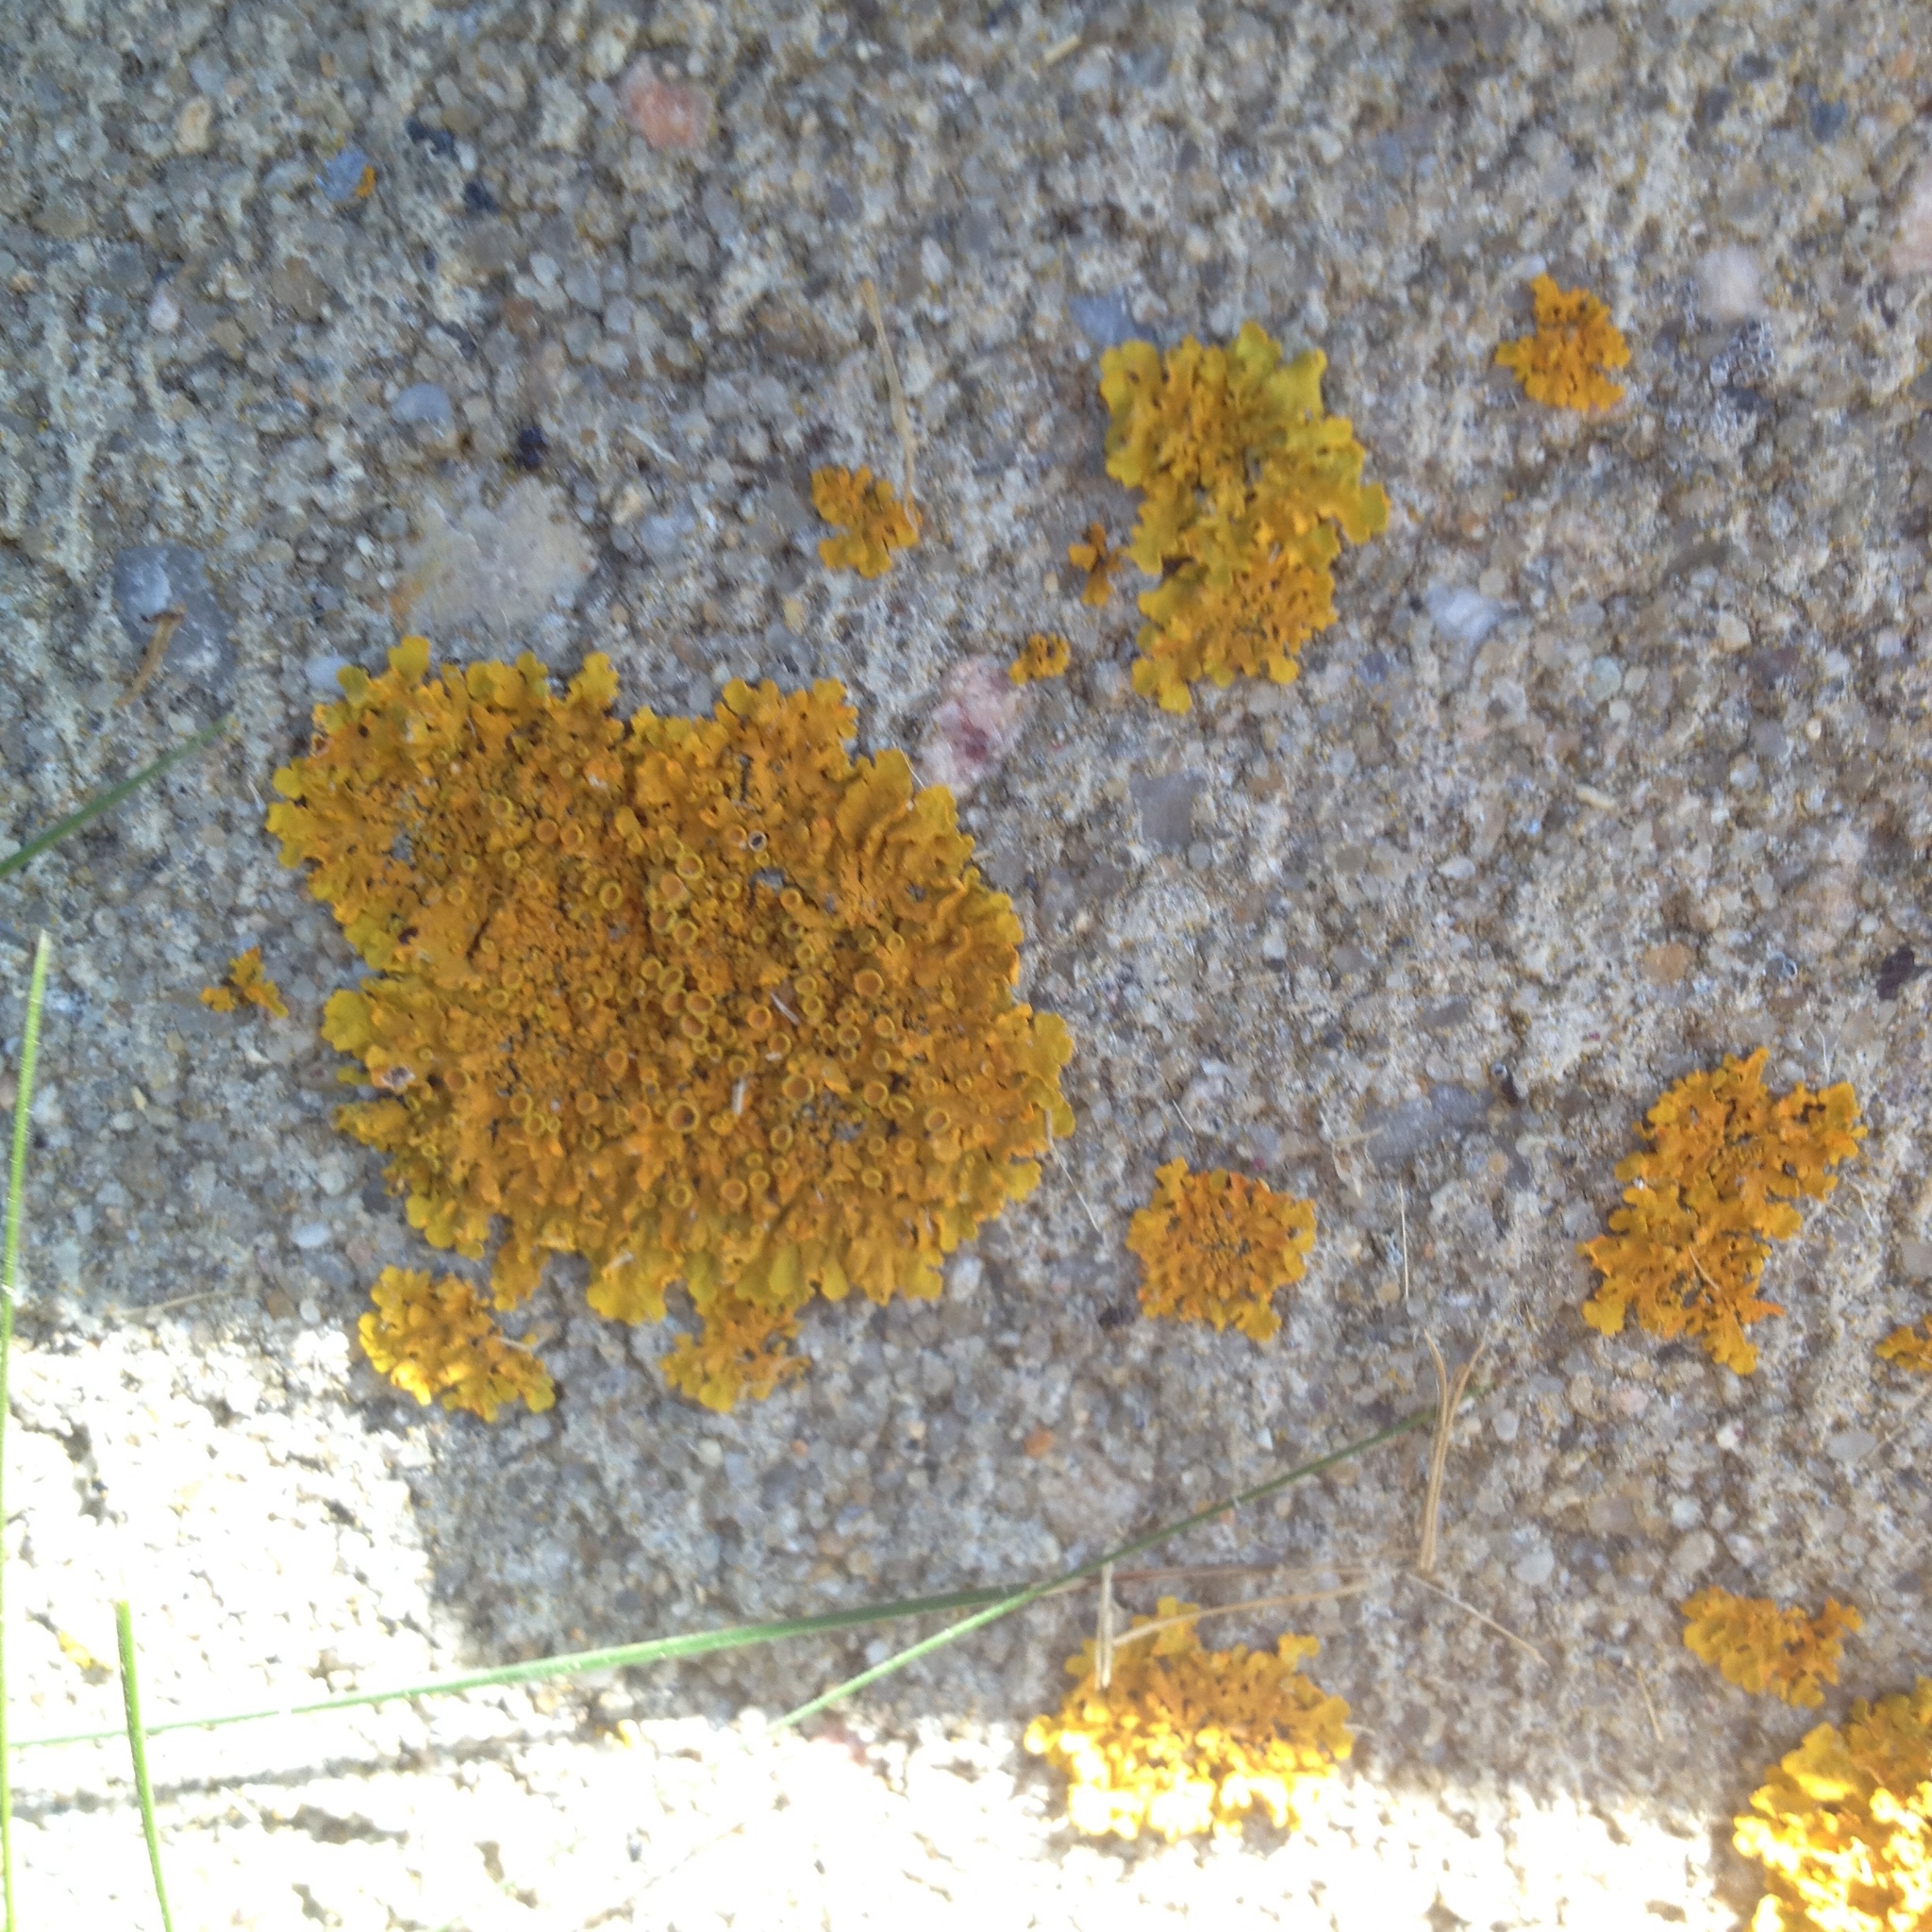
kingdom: Fungi
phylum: Ascomycota
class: Lecanoromycetes
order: Teloschistales
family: Teloschistaceae
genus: Xanthoria
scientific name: Xanthoria parietina
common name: Common orange lichen
